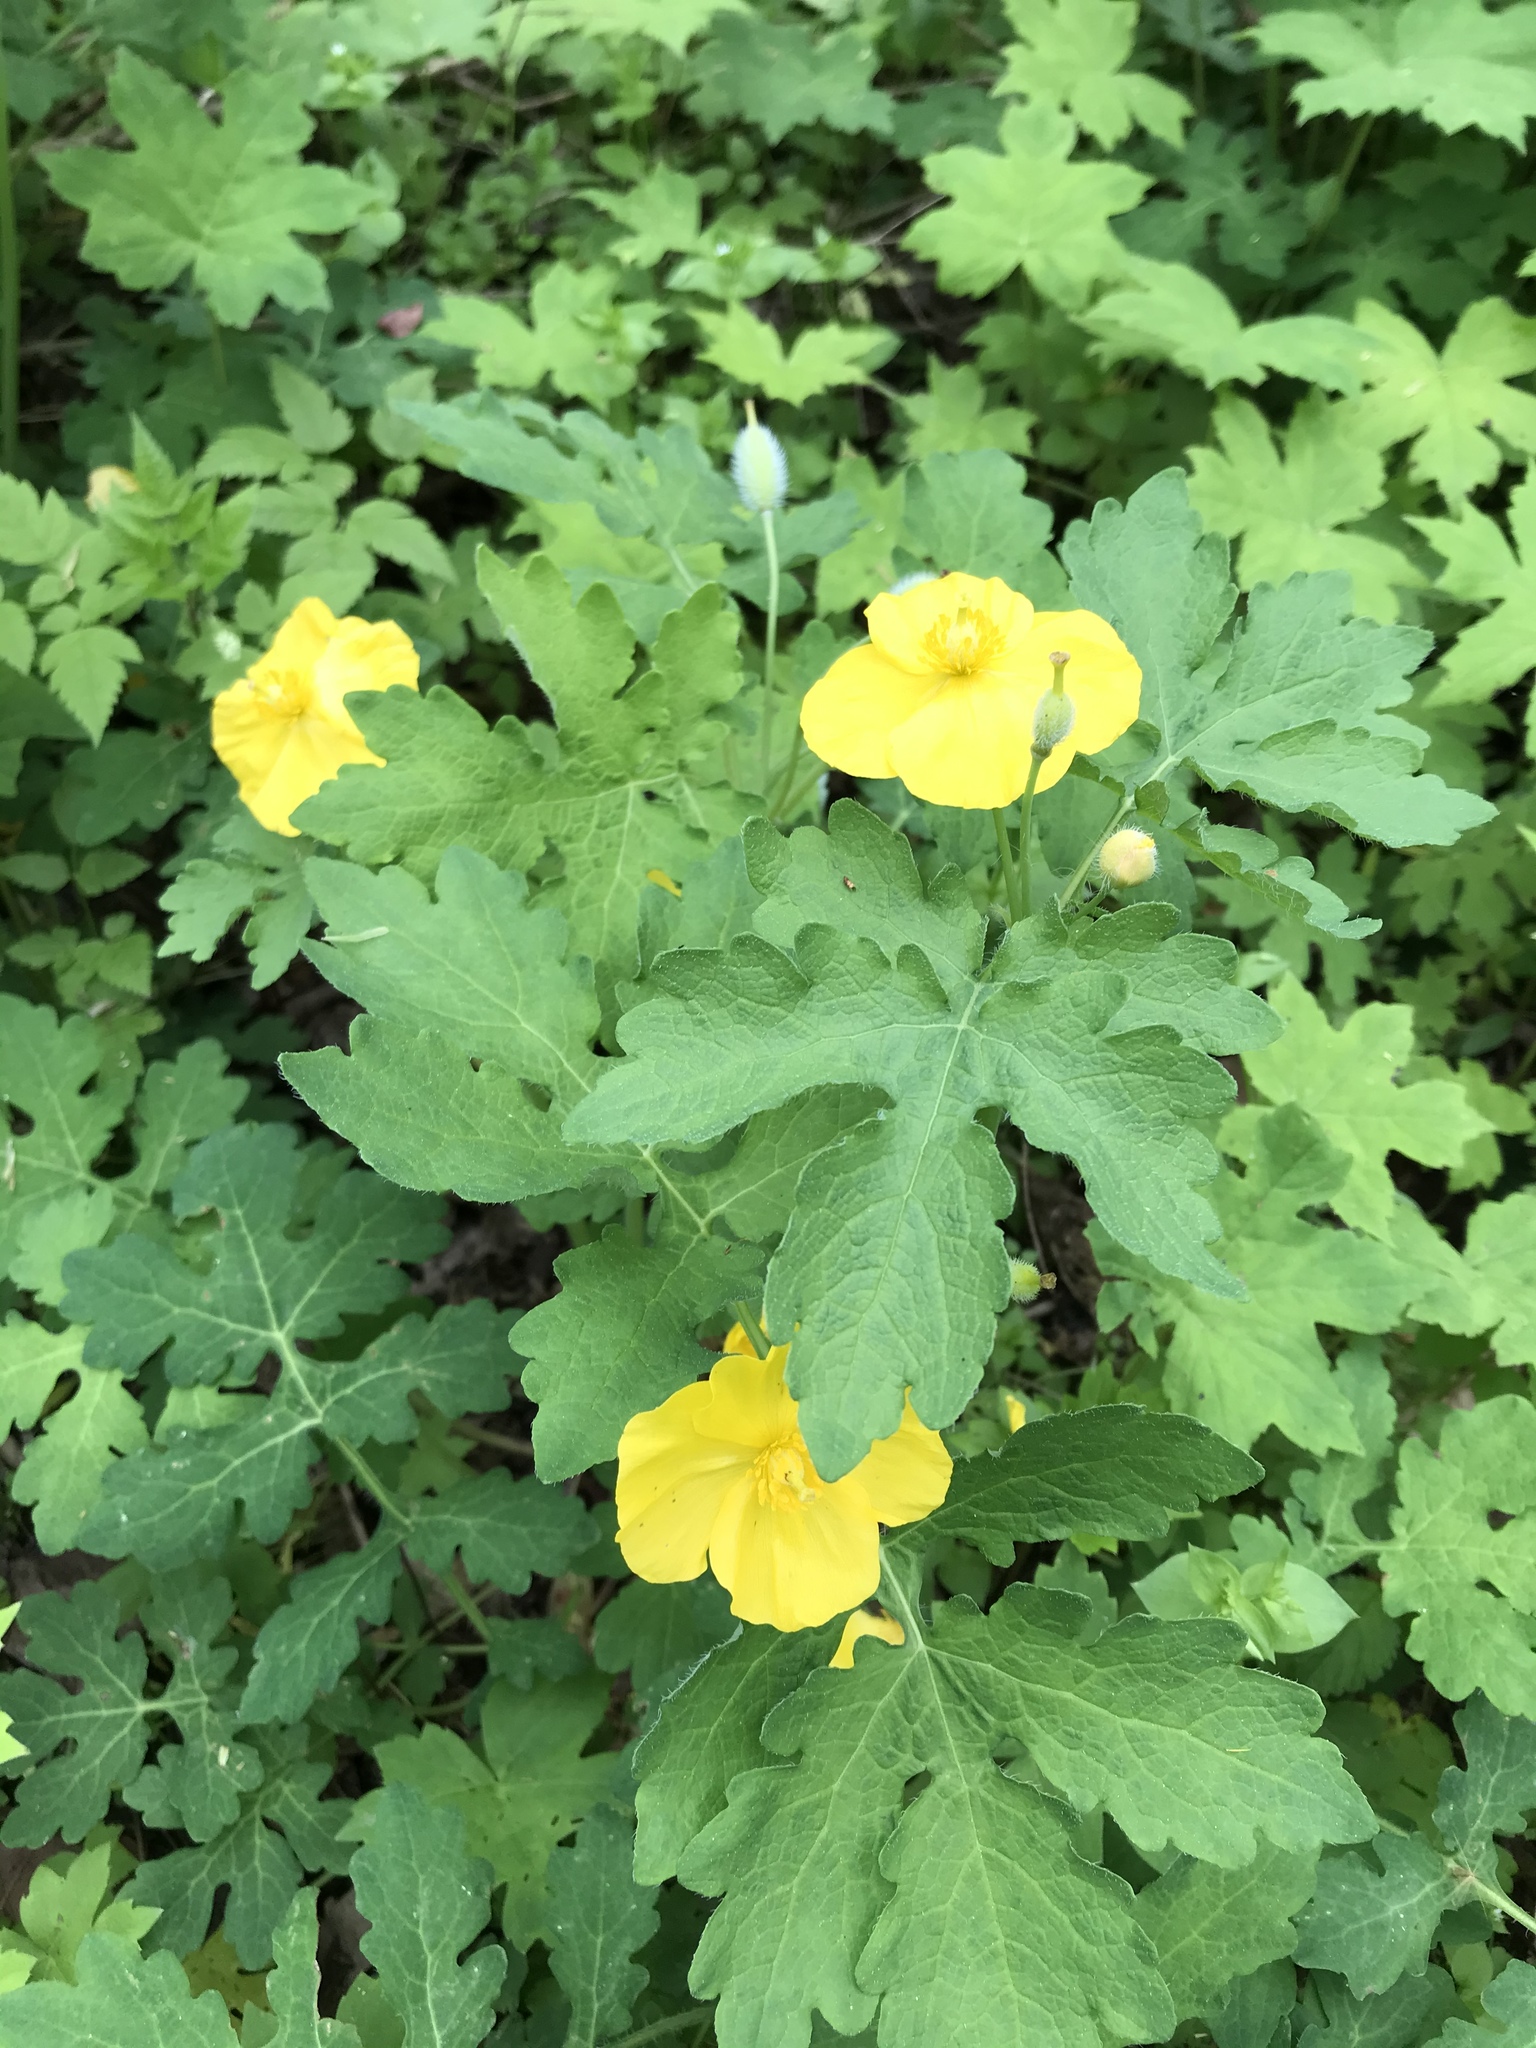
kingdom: Plantae
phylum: Tracheophyta
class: Magnoliopsida
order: Ranunculales
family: Papaveraceae
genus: Stylophorum
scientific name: Stylophorum diphyllum
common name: Celandine poppy
